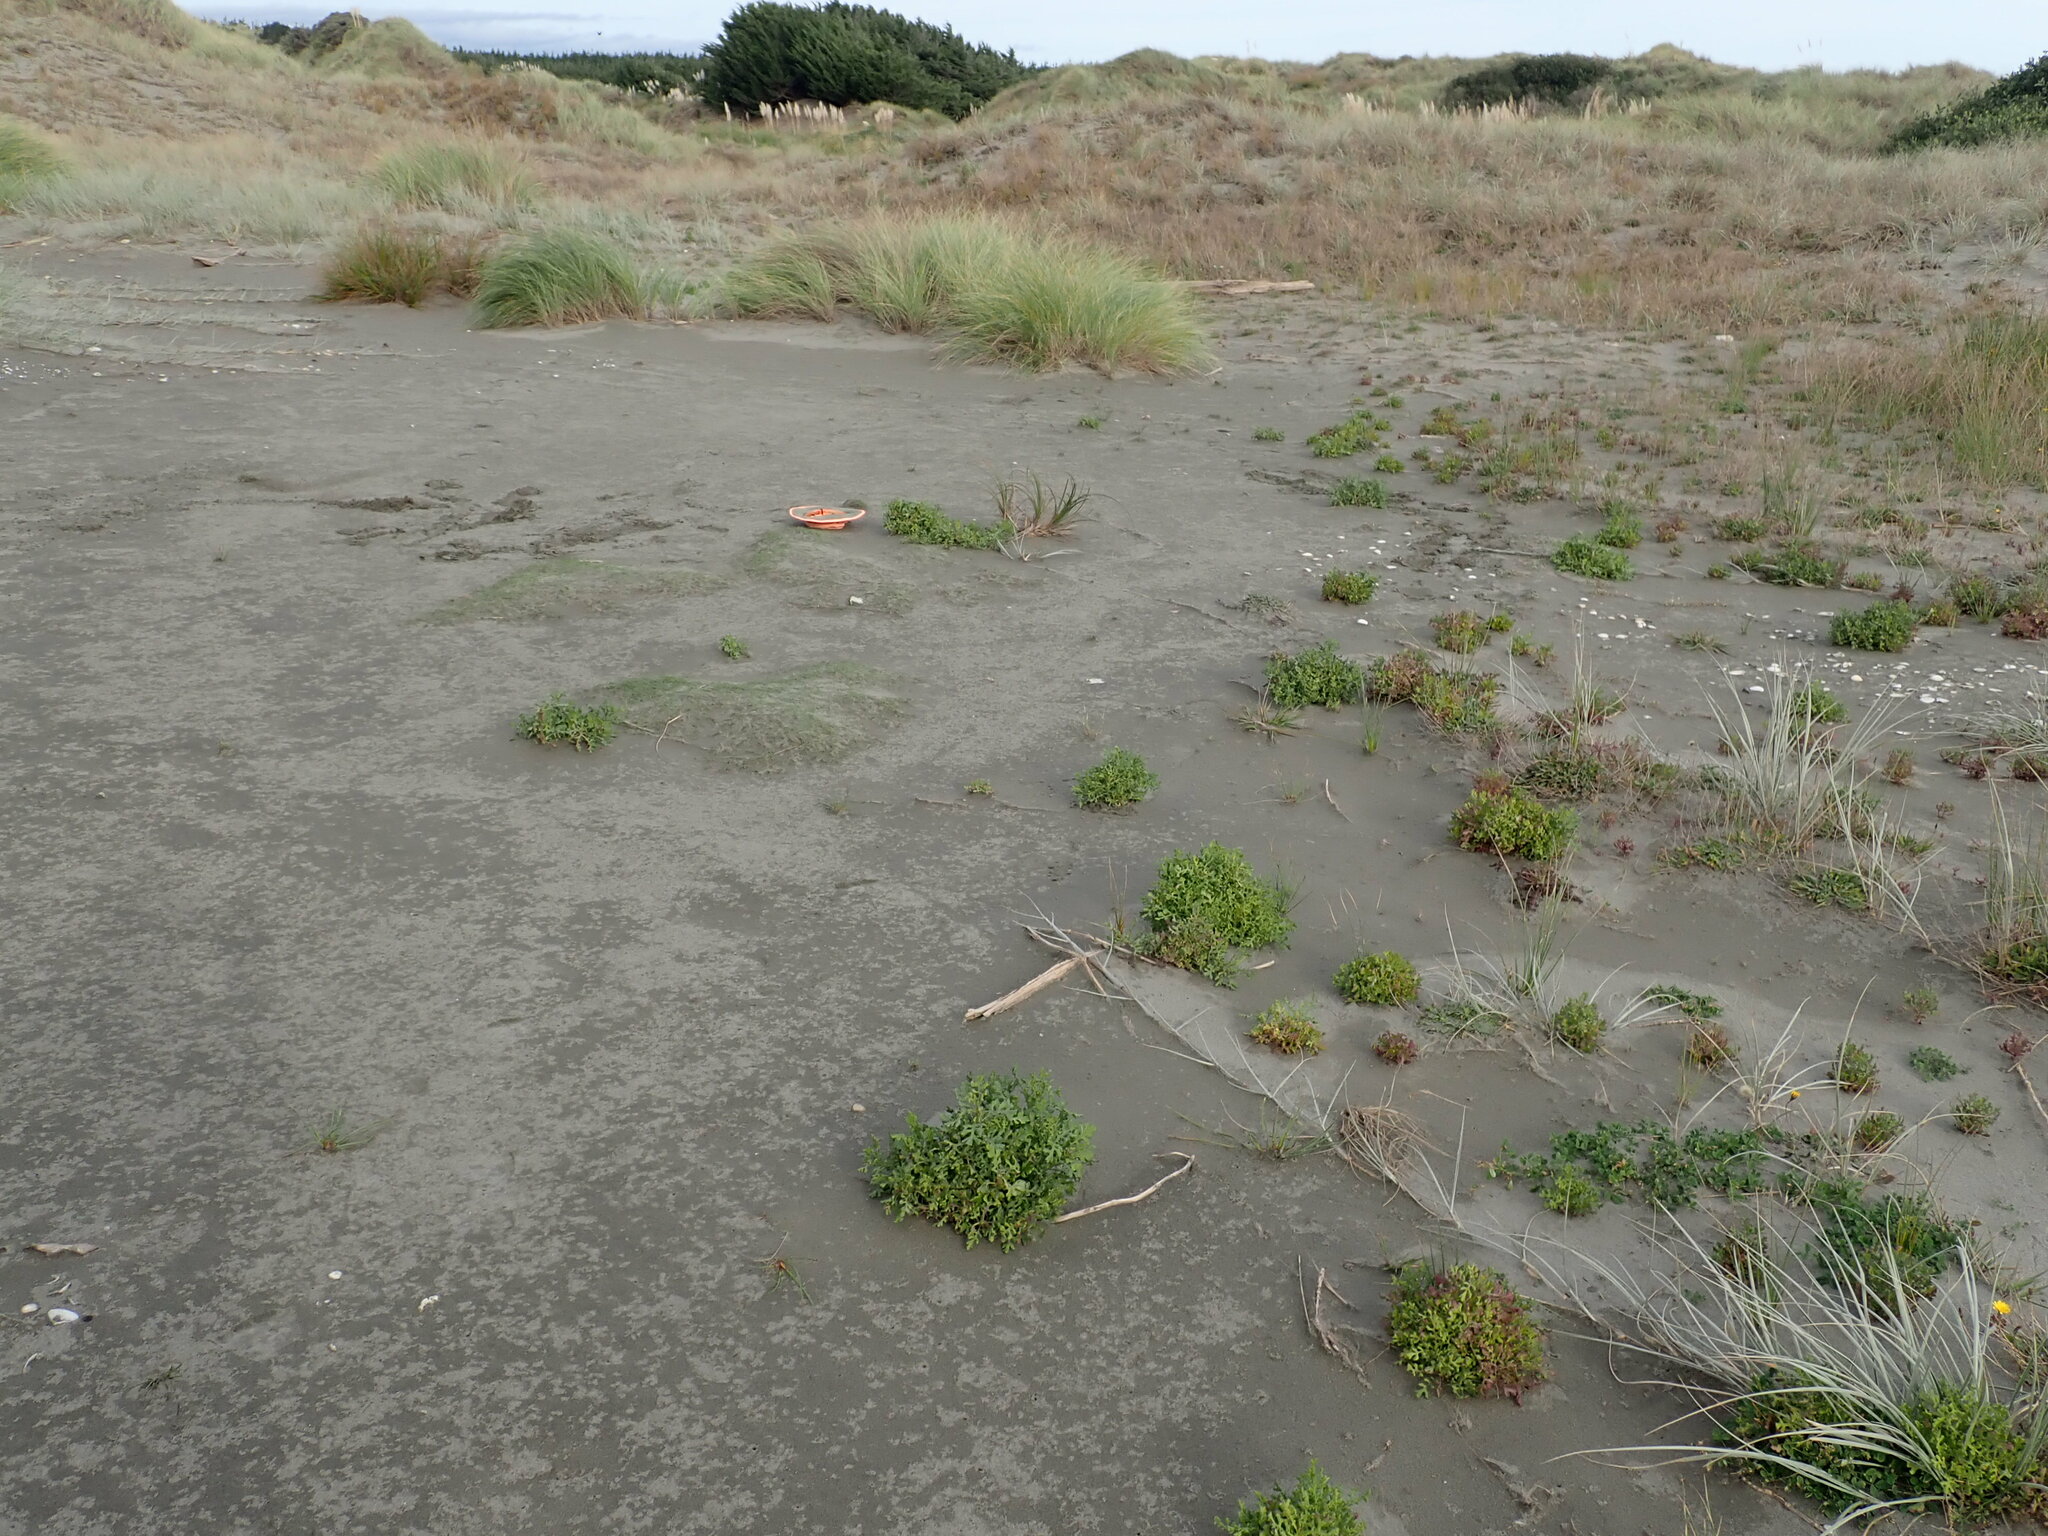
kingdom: Plantae
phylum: Tracheophyta
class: Magnoliopsida
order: Asterales
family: Asteraceae
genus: Senecio
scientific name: Senecio elegans
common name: Purple groundsel
